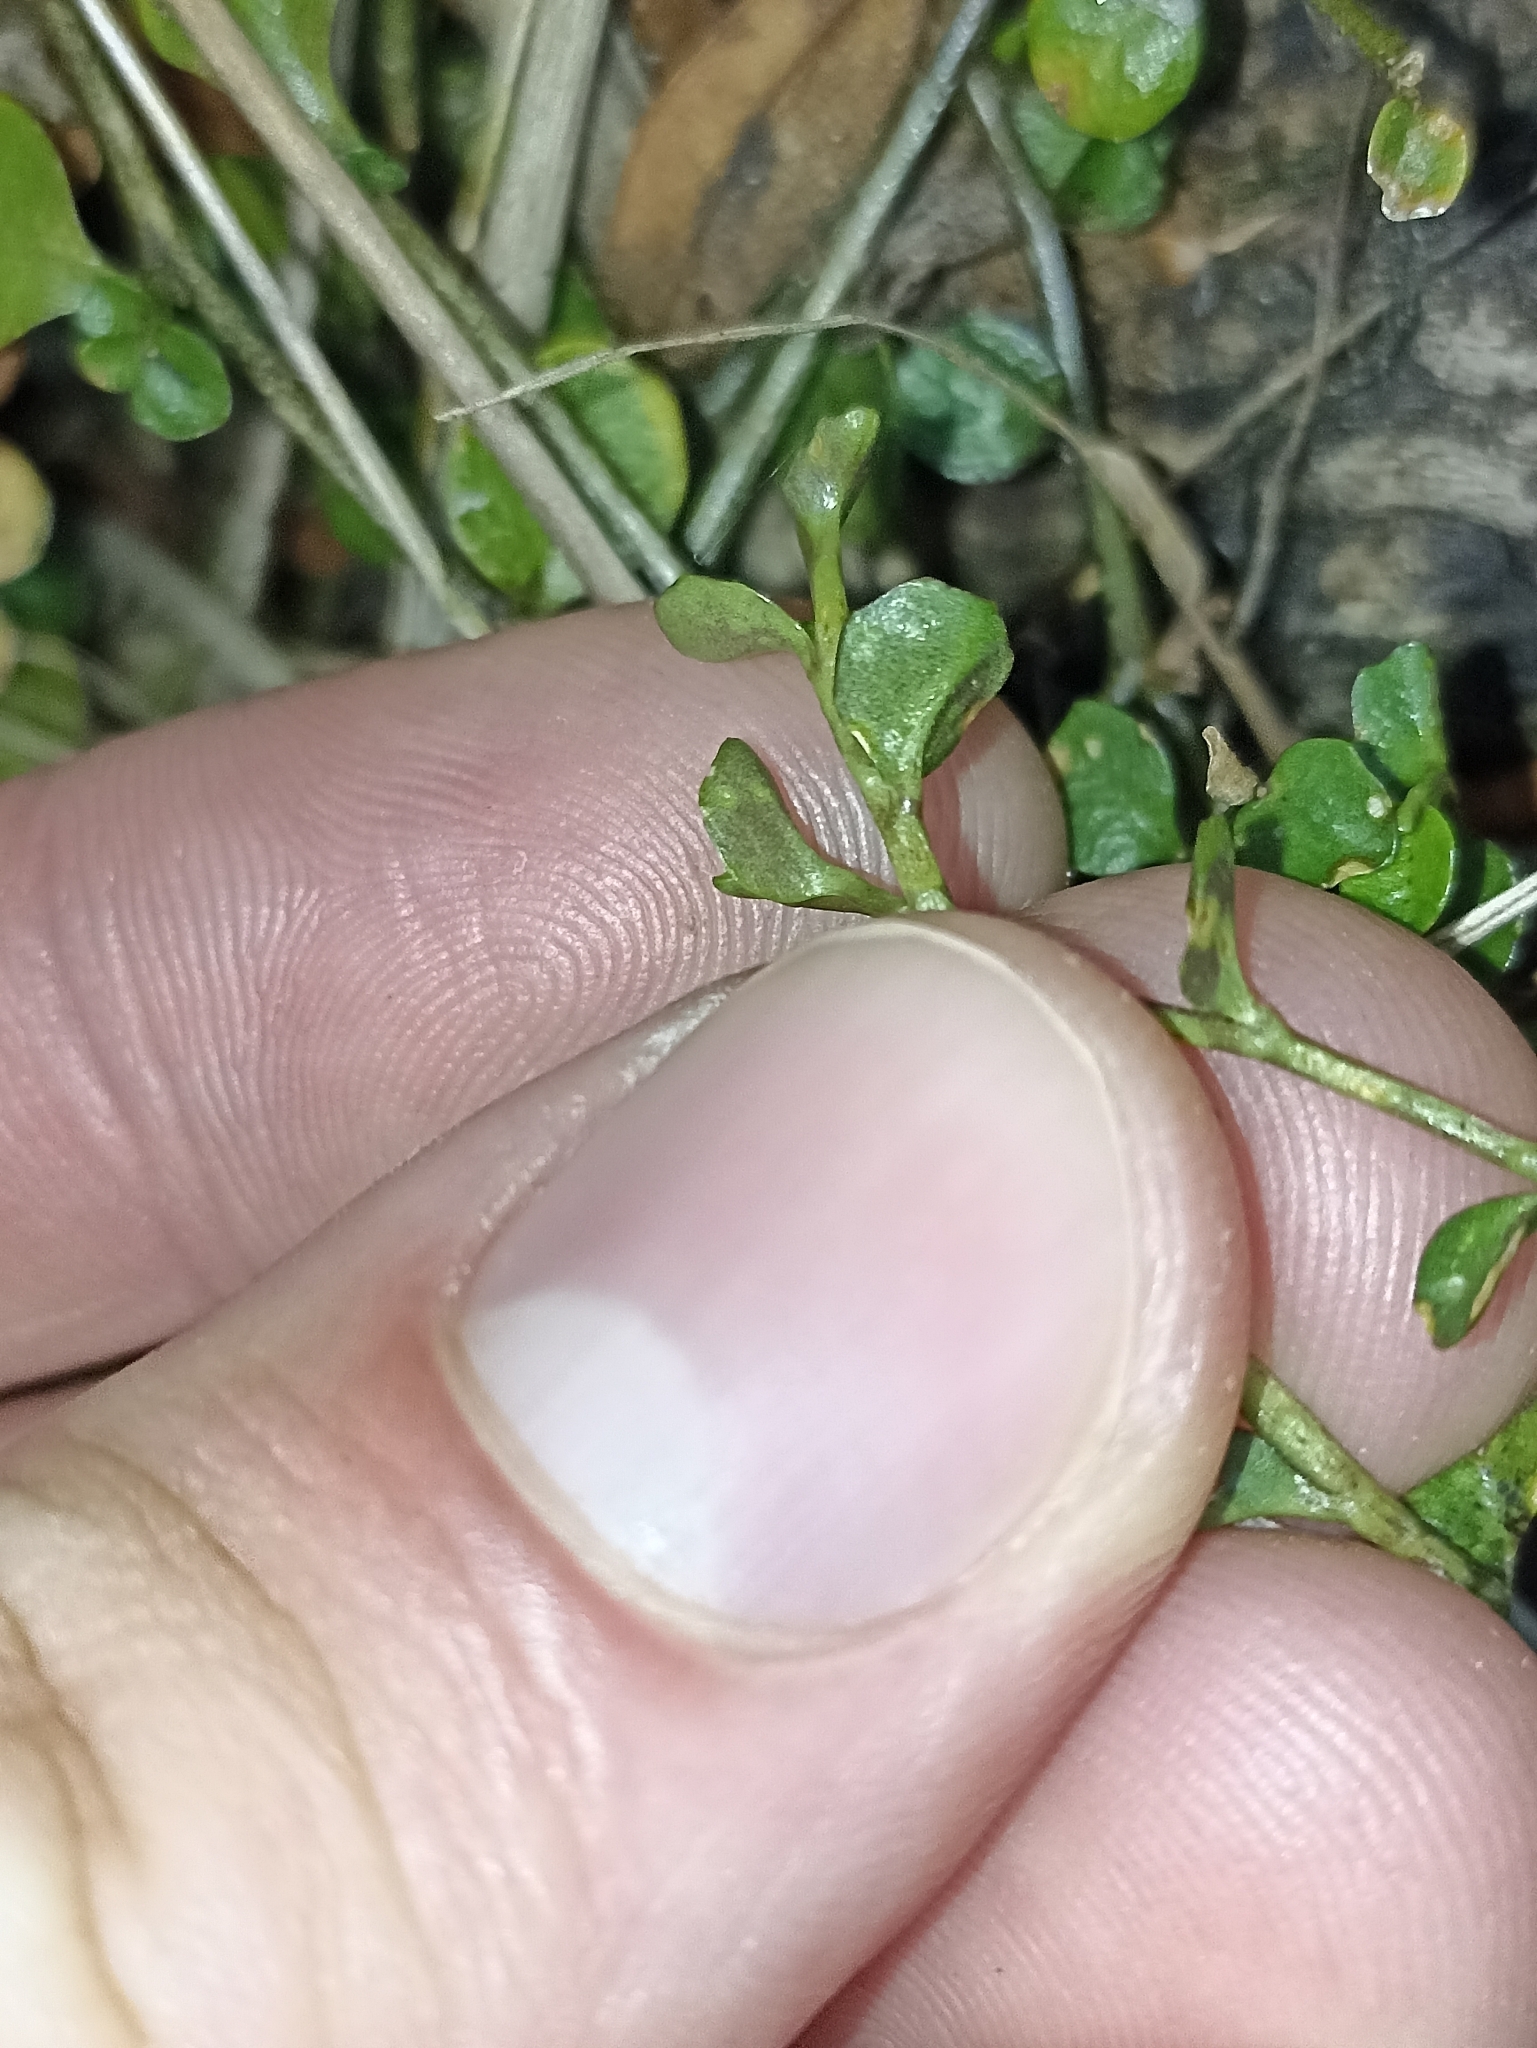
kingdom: Plantae
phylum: Tracheophyta
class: Magnoliopsida
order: Asterales
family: Campanulaceae
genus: Lobelia
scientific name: Lobelia angulata
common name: Lawn lobelia
